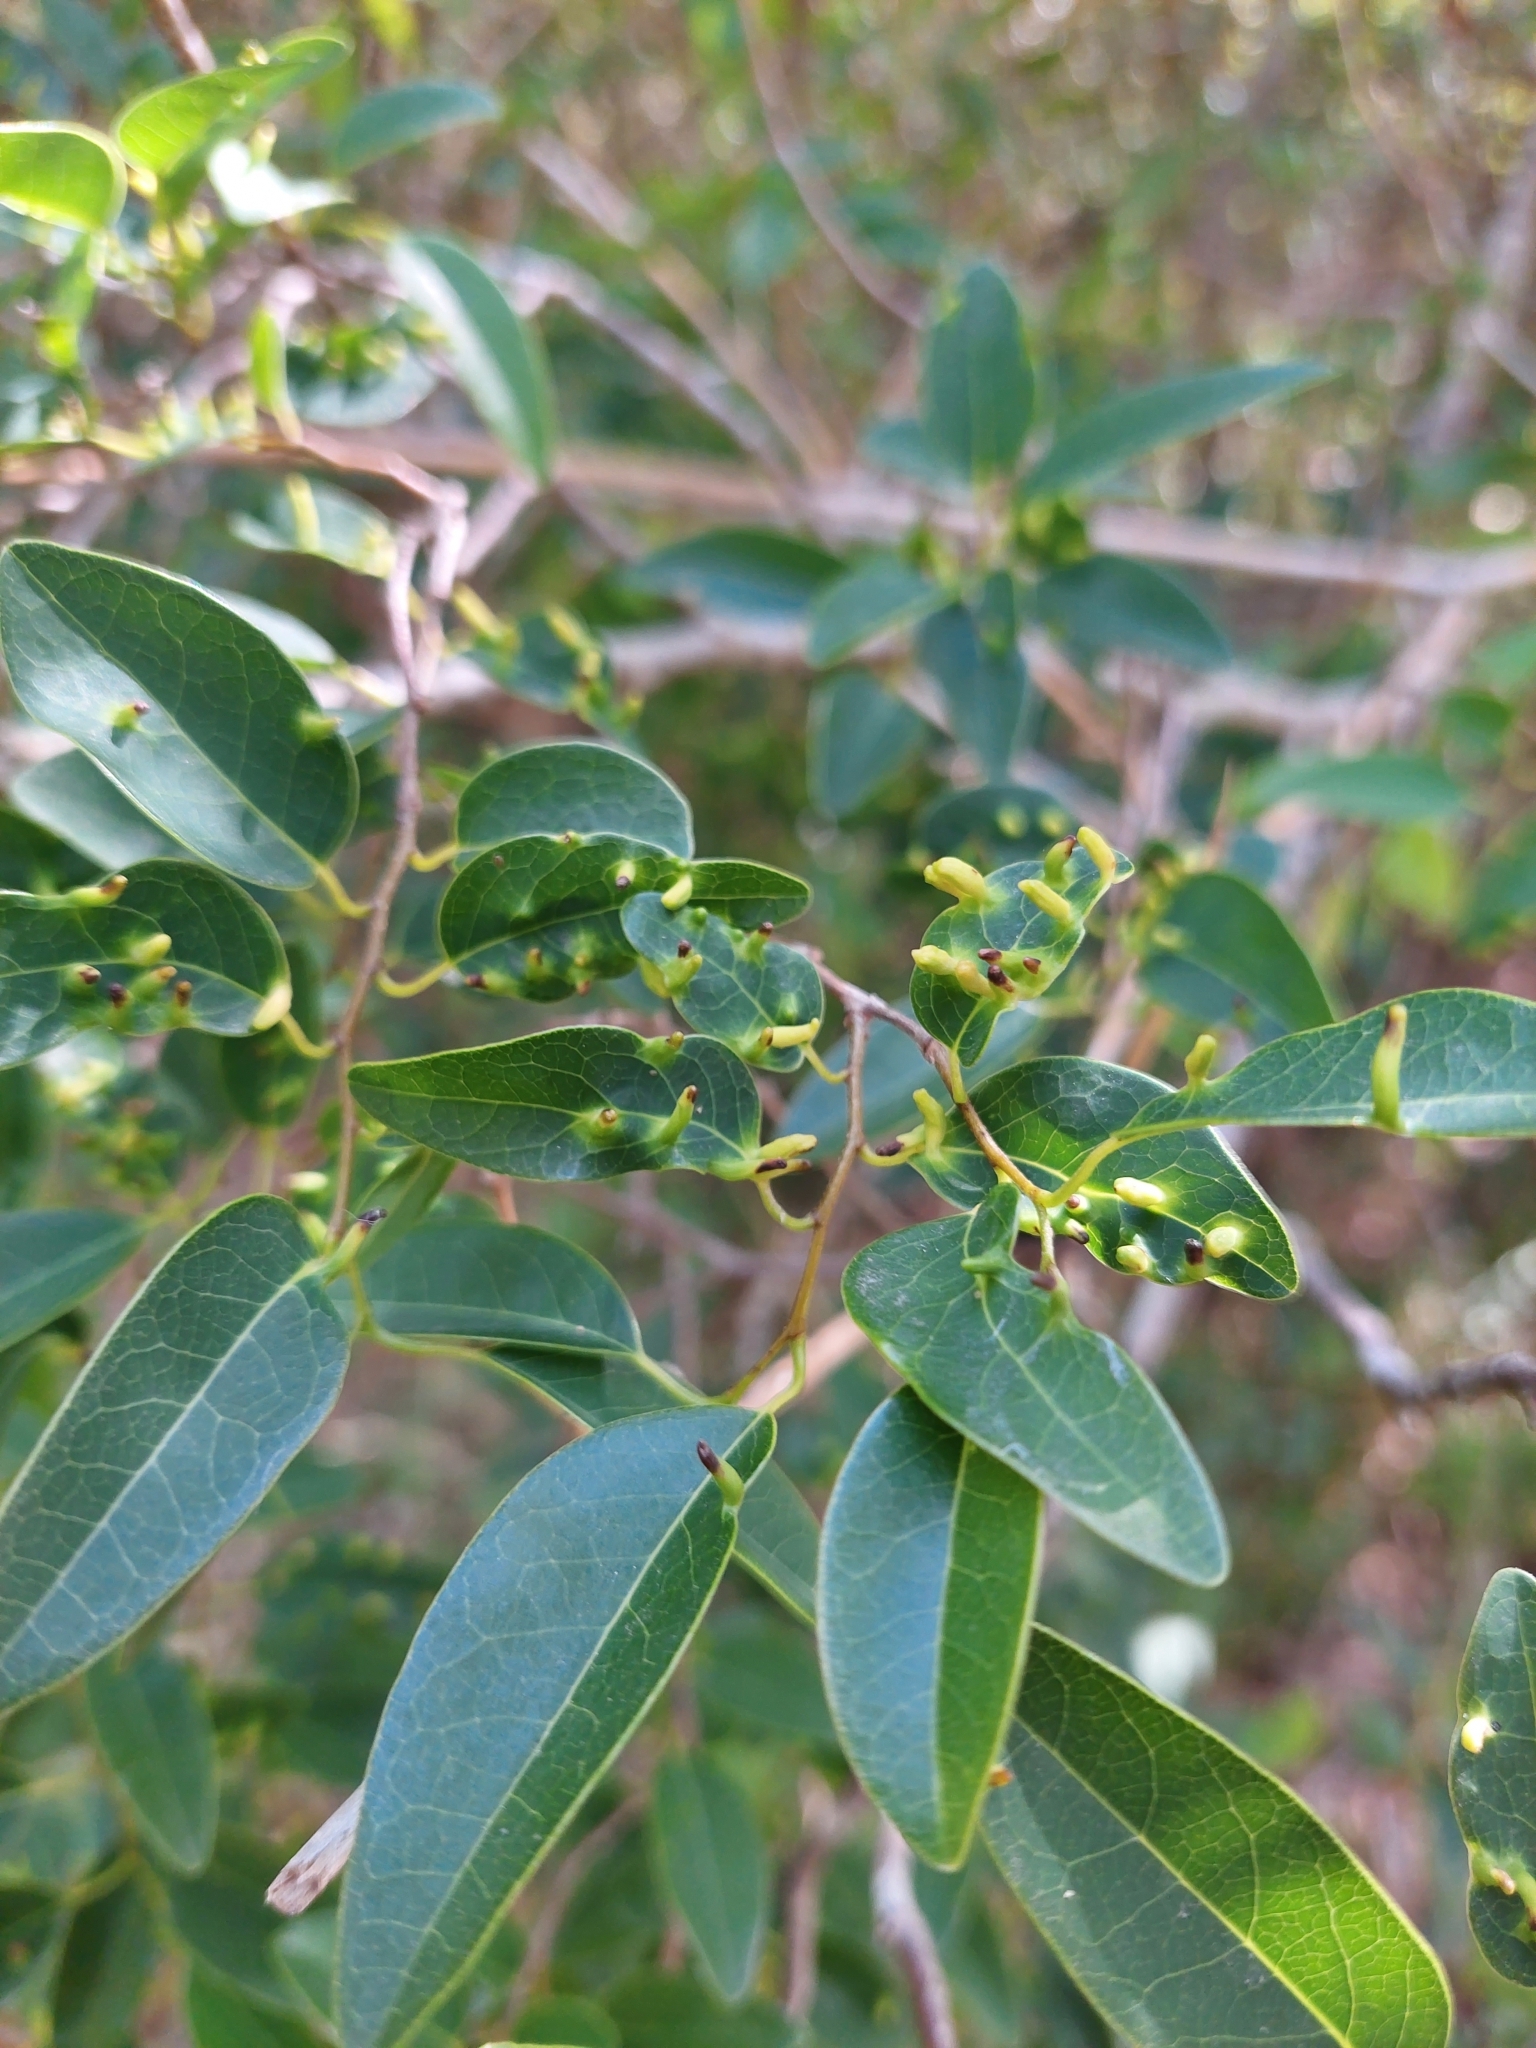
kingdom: Plantae
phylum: Tracheophyta
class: Magnoliopsida
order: Magnoliales
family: Annonaceae
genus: Annona
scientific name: Annona emarginata
